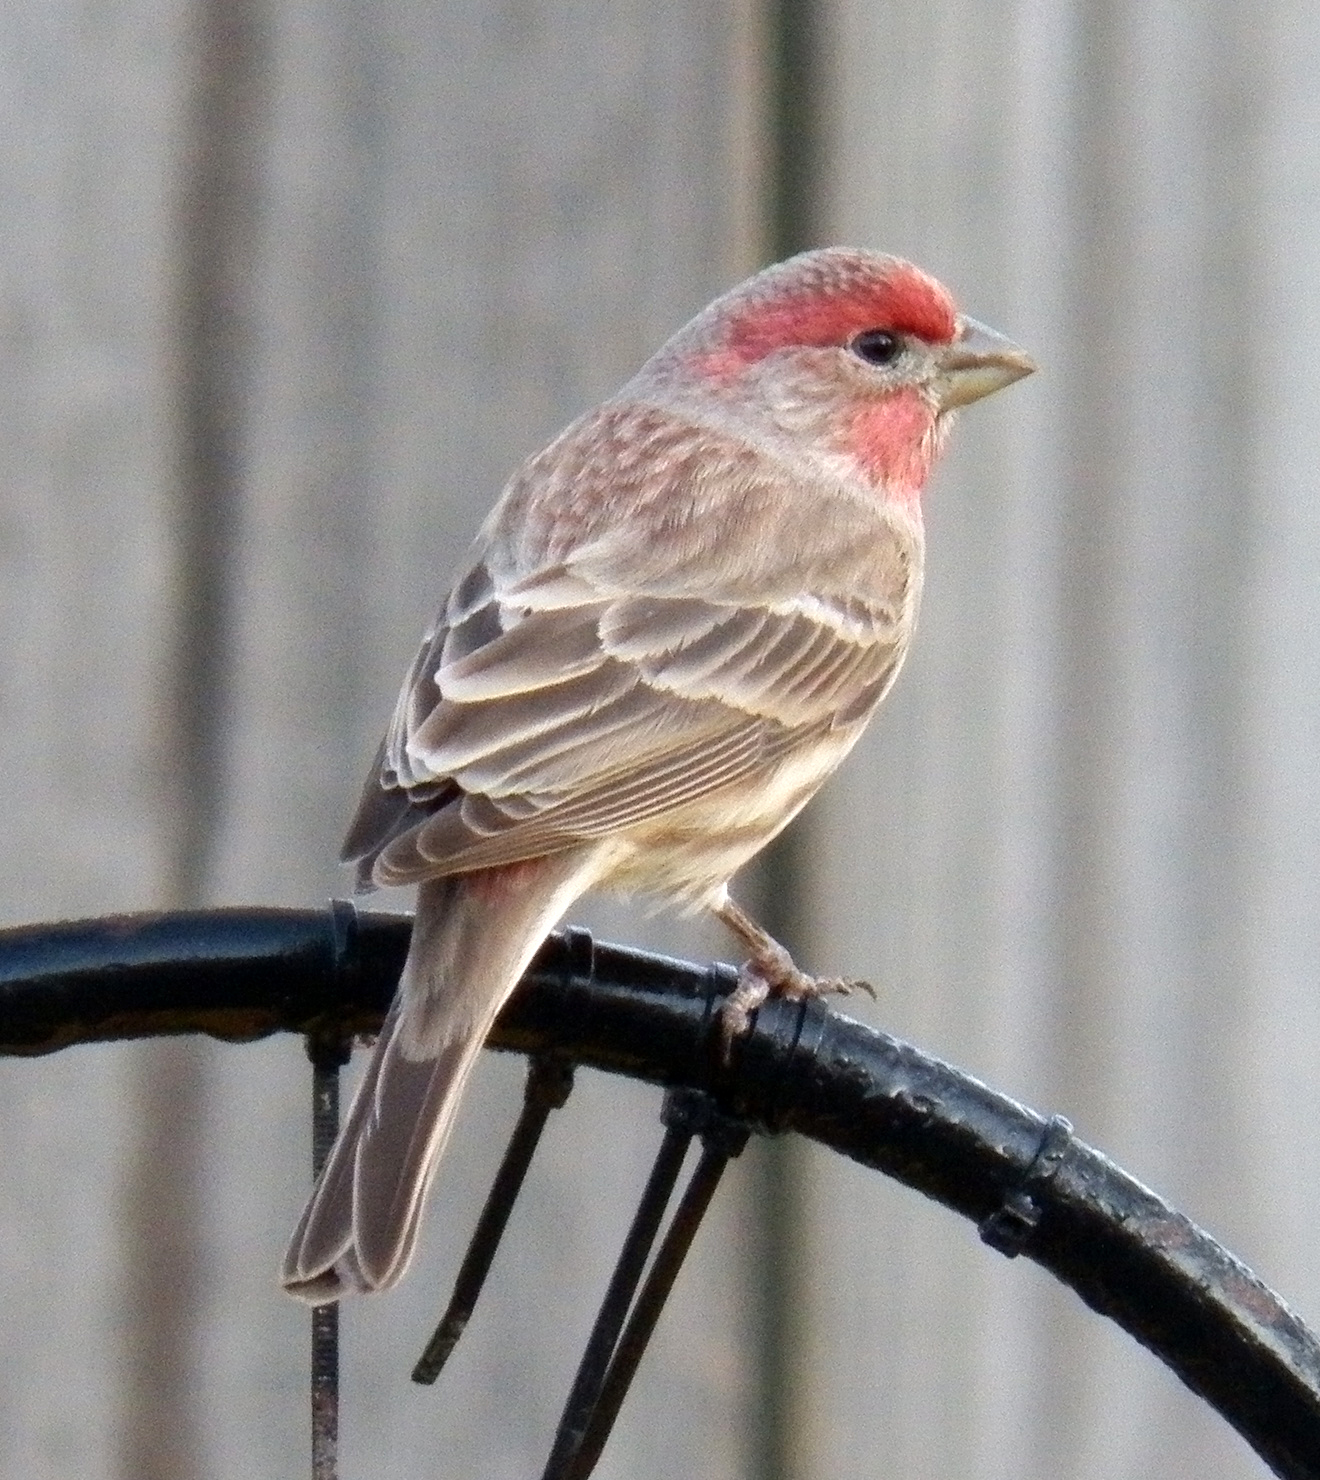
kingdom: Animalia
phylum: Chordata
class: Aves
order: Passeriformes
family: Fringillidae
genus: Haemorhous
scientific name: Haemorhous mexicanus
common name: House finch
